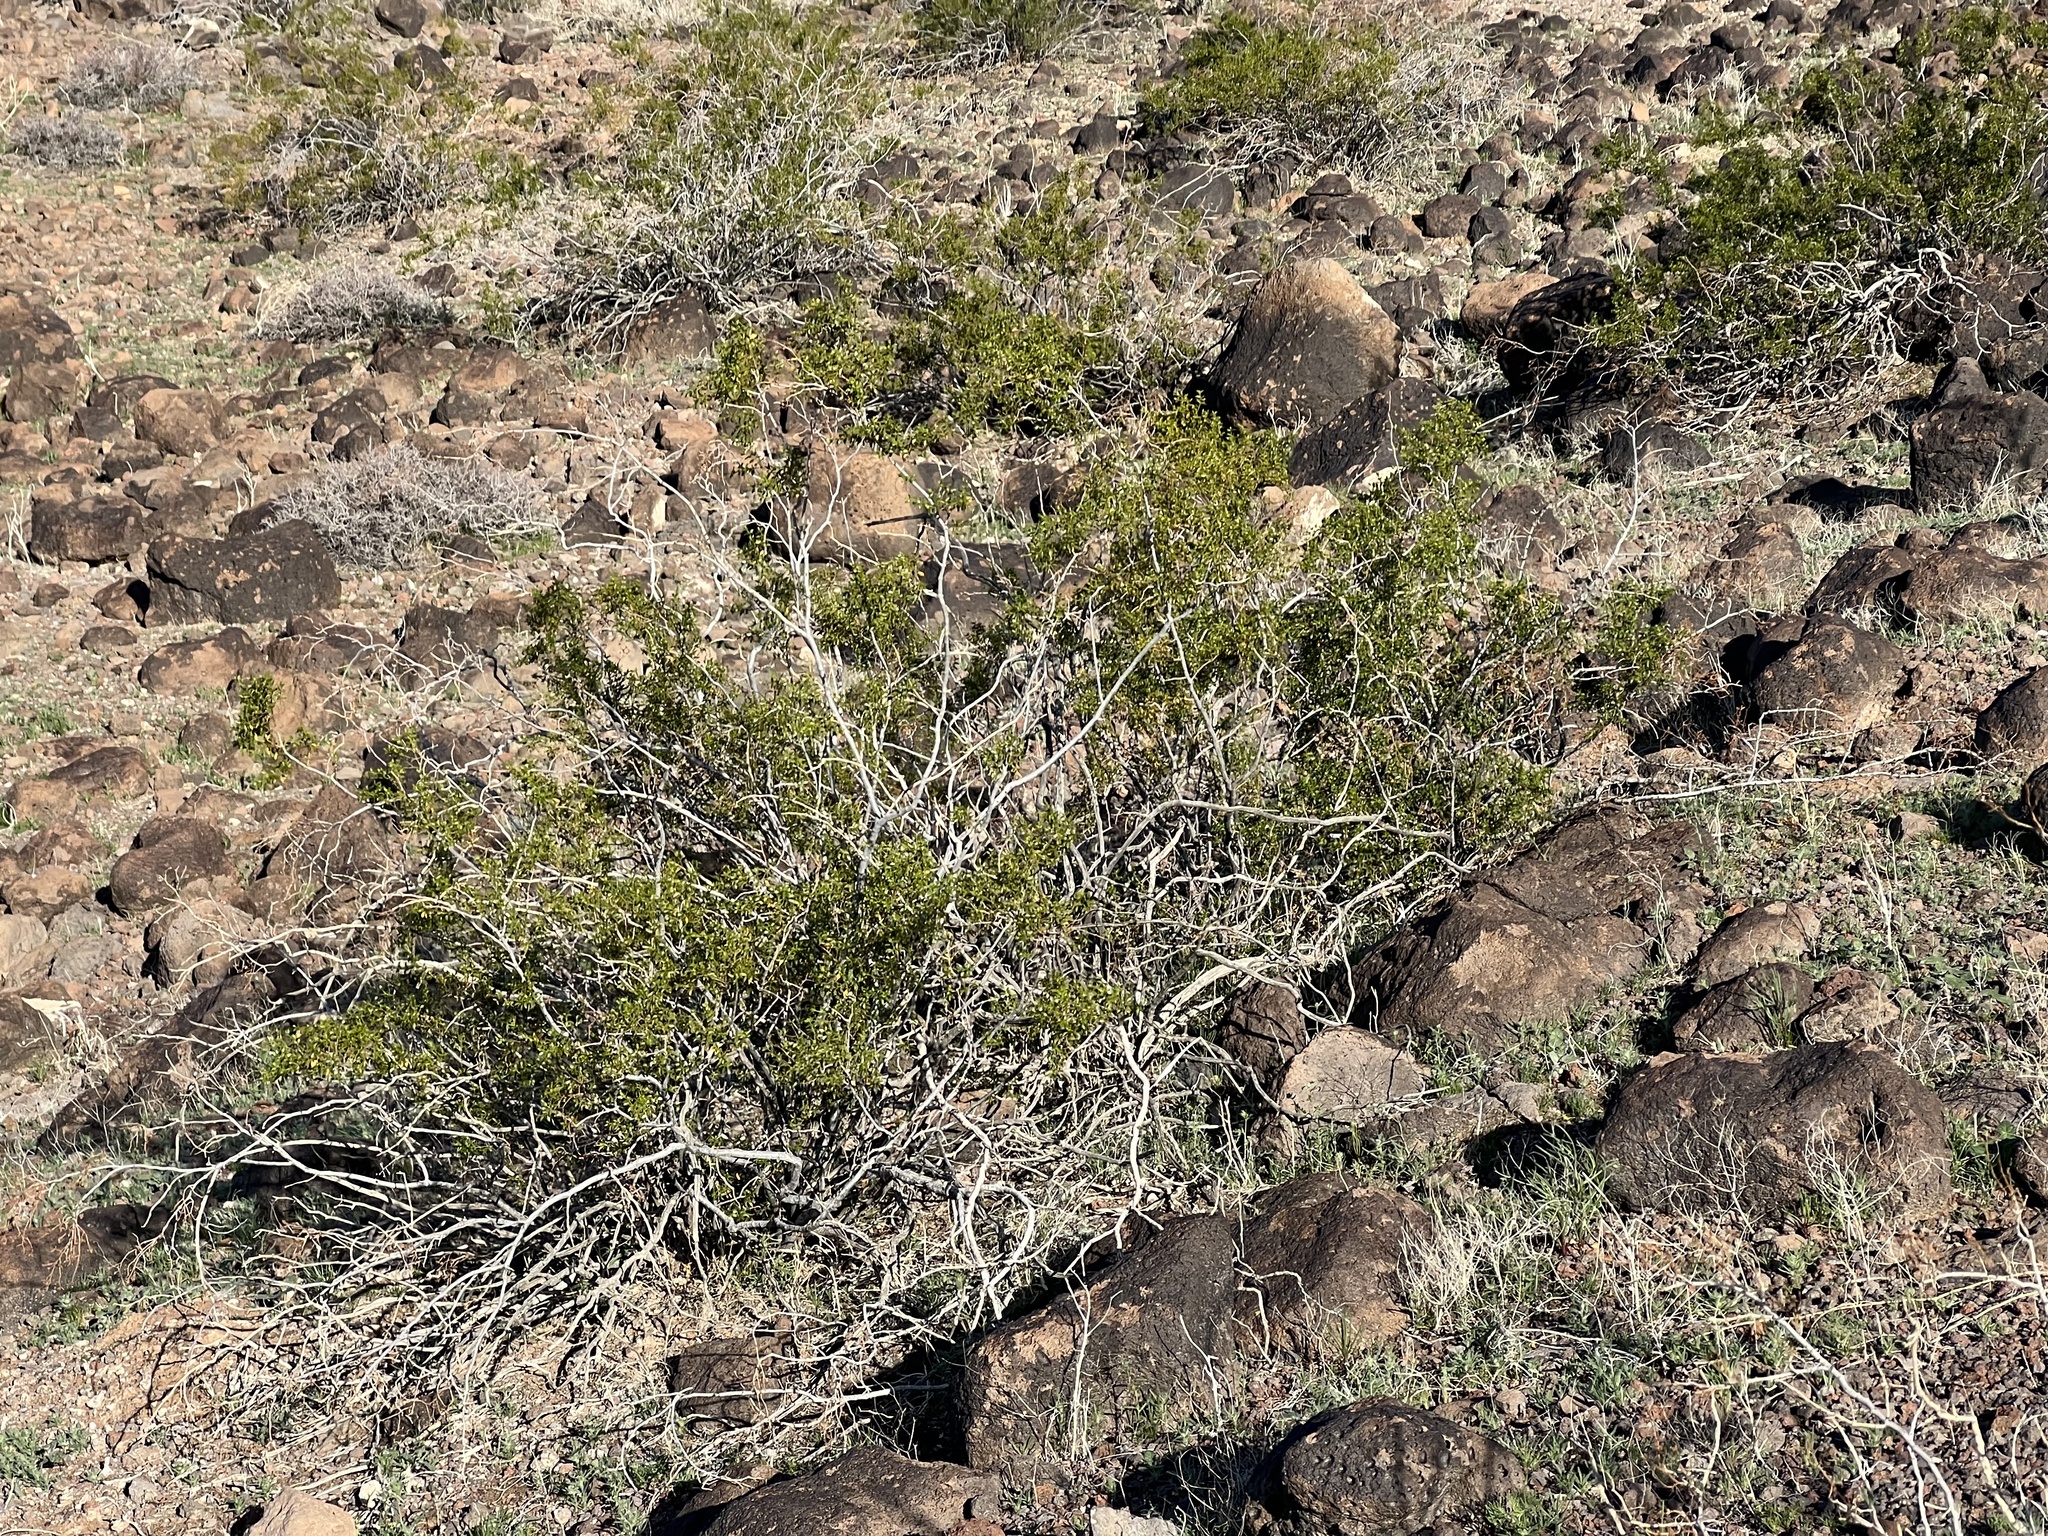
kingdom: Plantae
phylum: Tracheophyta
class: Magnoliopsida
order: Zygophyllales
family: Zygophyllaceae
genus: Larrea
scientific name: Larrea tridentata
